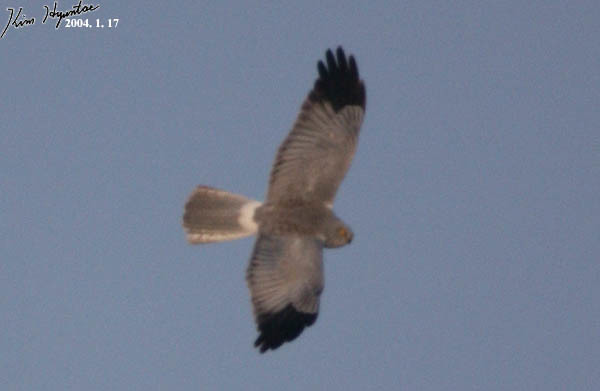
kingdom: Animalia
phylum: Chordata
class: Aves
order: Accipitriformes
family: Accipitridae
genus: Circus
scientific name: Circus cyaneus
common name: Hen harrier
